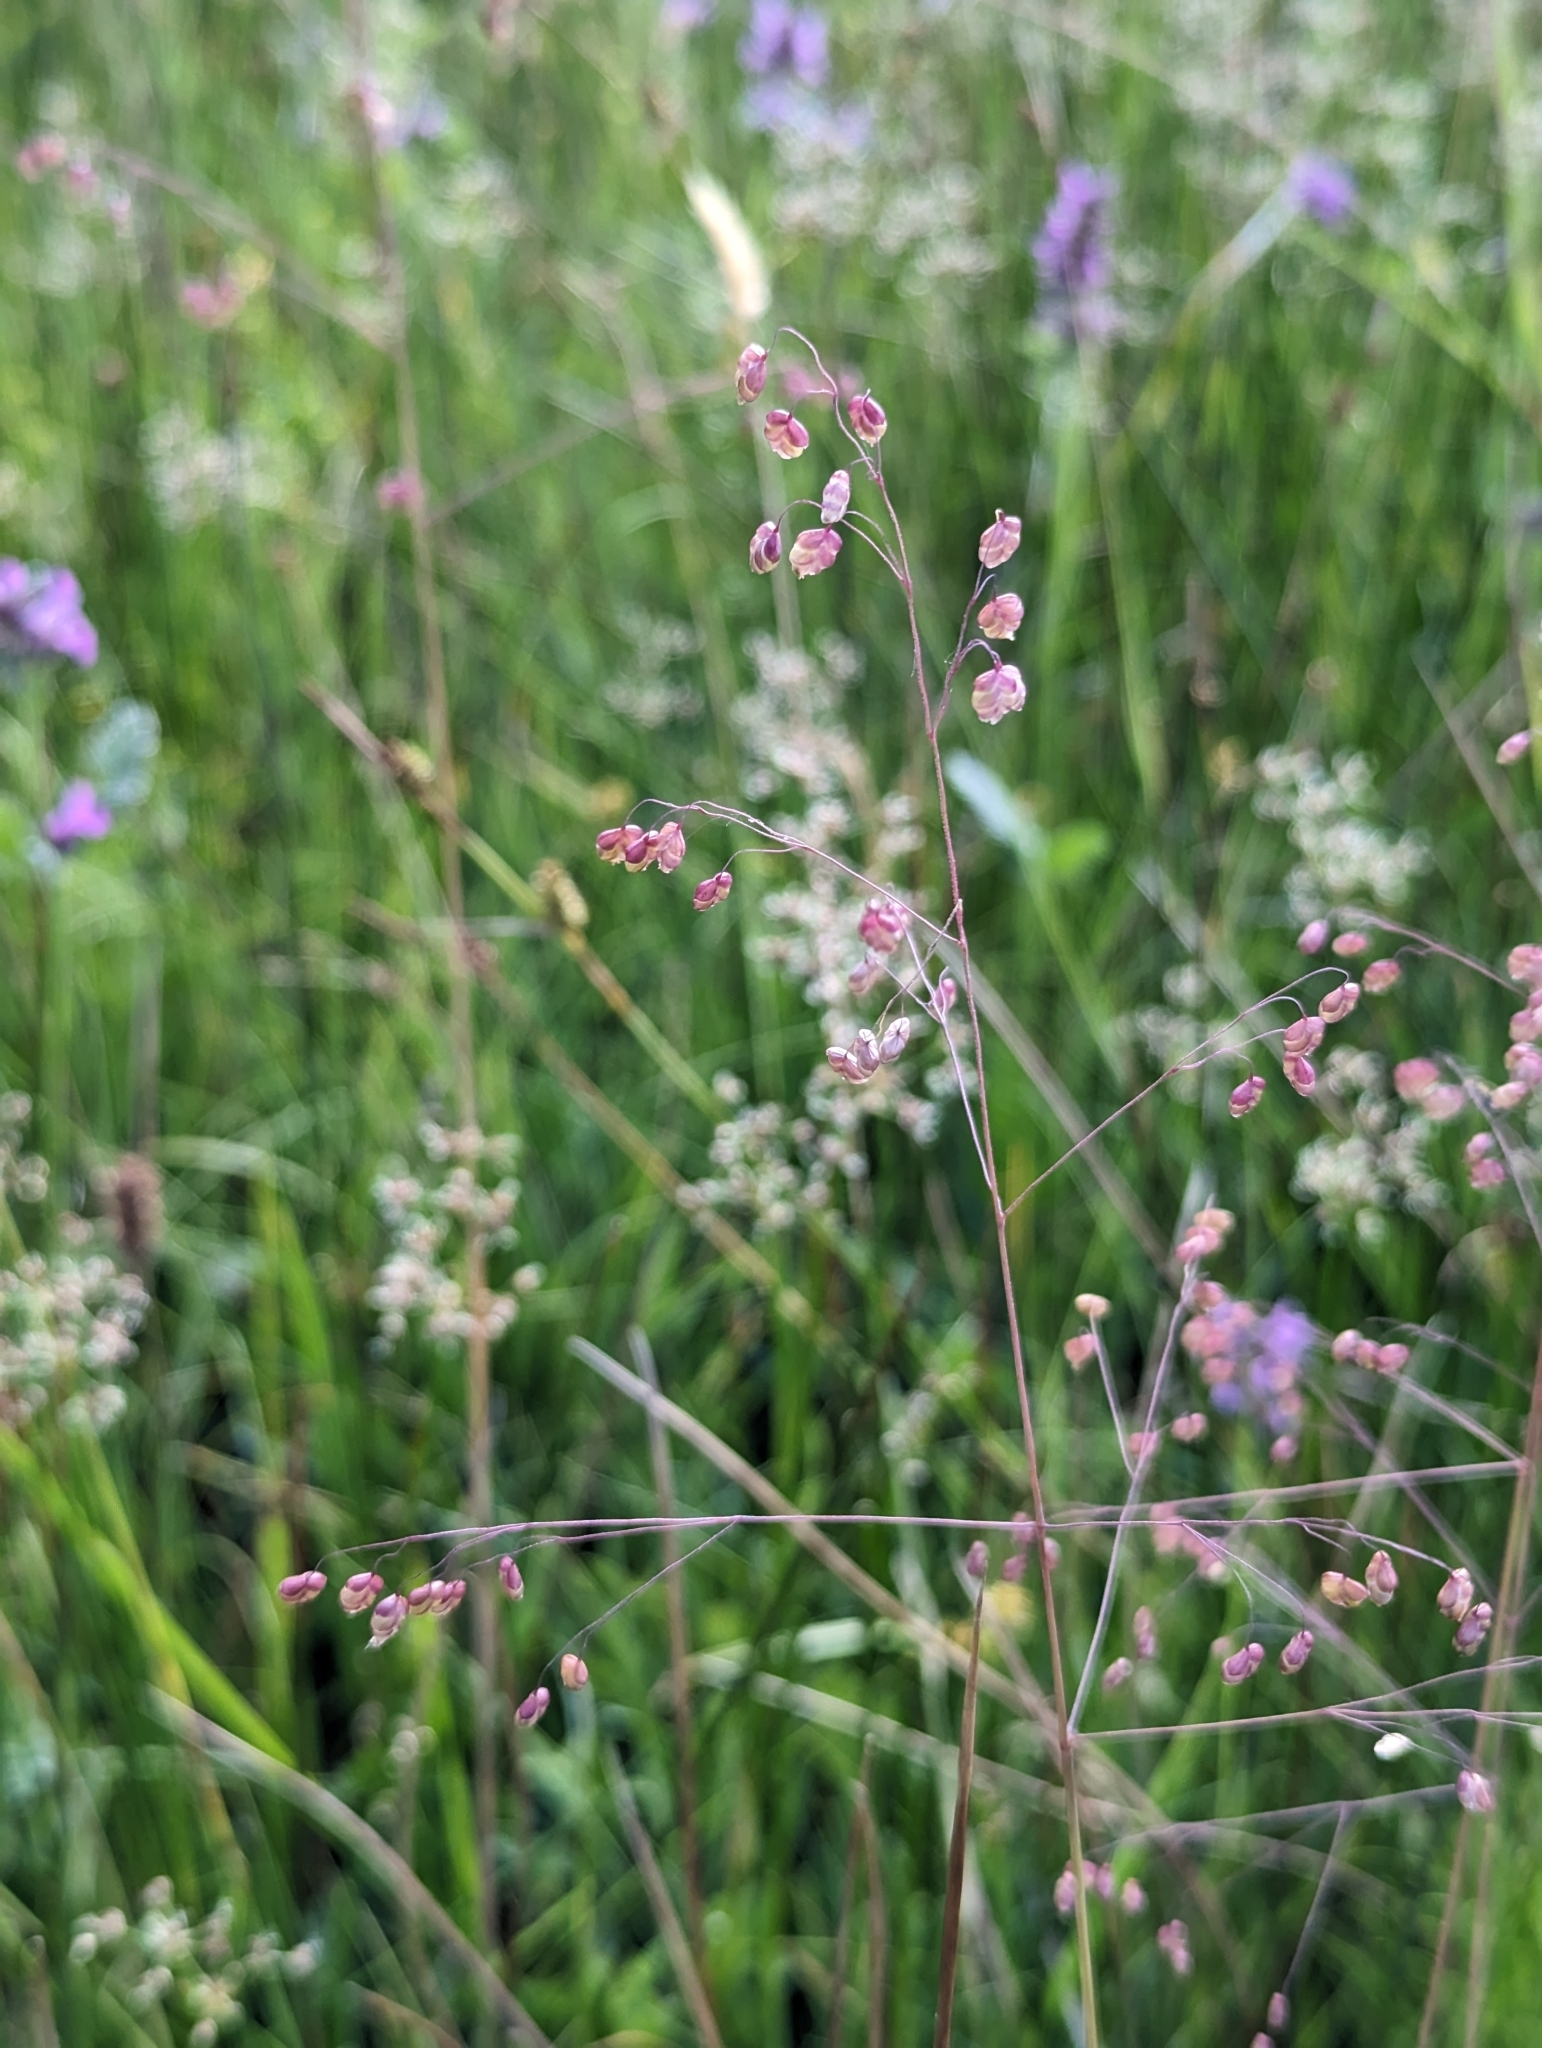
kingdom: Plantae
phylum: Tracheophyta
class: Liliopsida
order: Poales
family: Poaceae
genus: Briza
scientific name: Briza media
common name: Quaking grass
